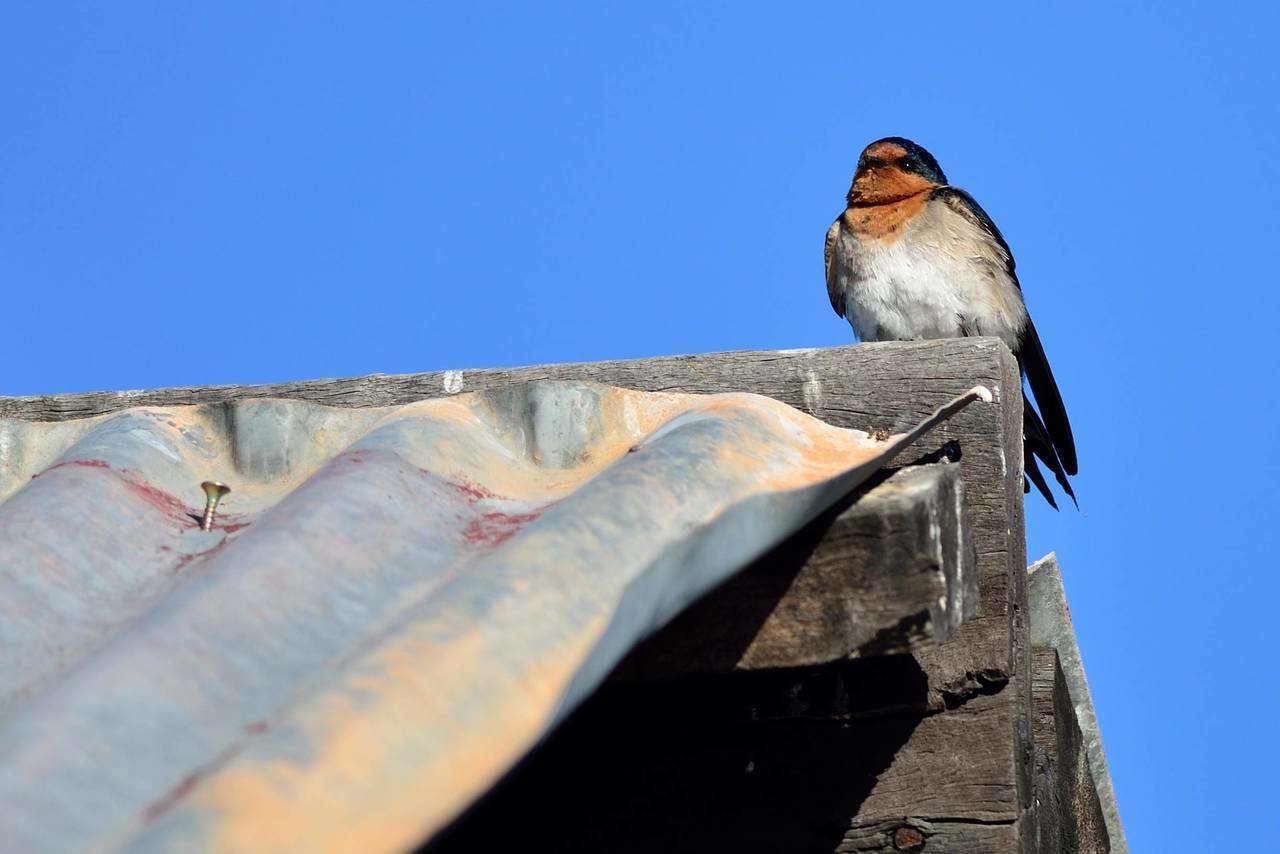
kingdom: Animalia
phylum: Chordata
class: Aves
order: Passeriformes
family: Hirundinidae
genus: Hirundo
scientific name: Hirundo neoxena
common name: Welcome swallow
